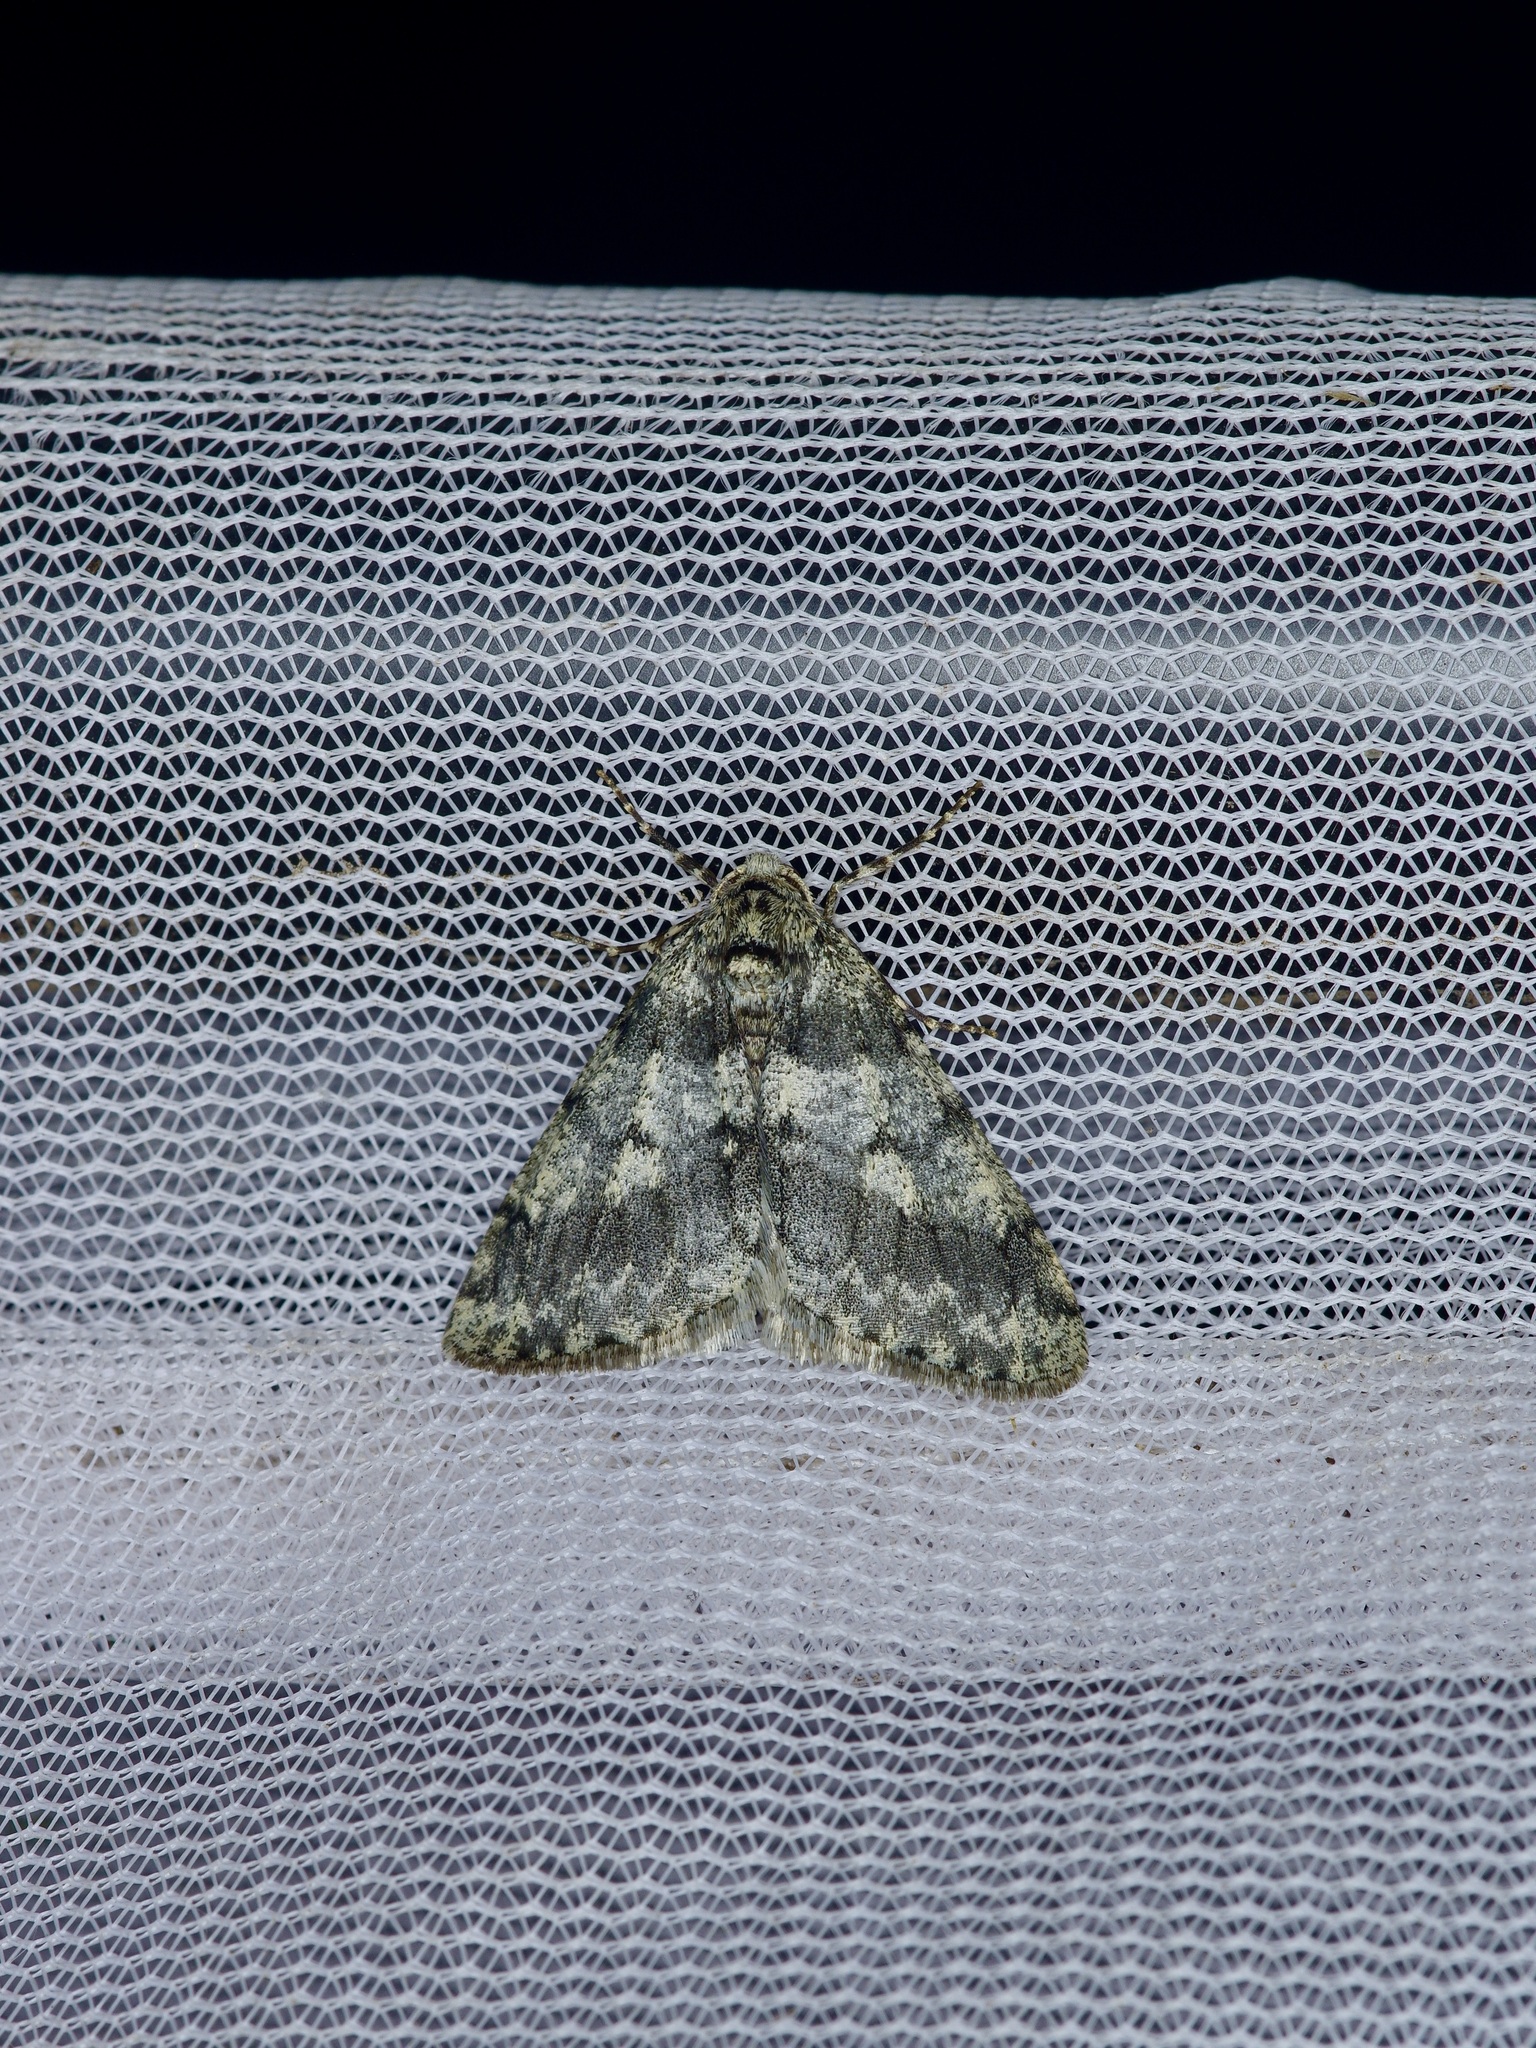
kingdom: Animalia
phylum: Arthropoda
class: Insecta
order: Lepidoptera
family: Geometridae
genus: Phigalia
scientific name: Phigalia strigataria
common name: Small phigalia
